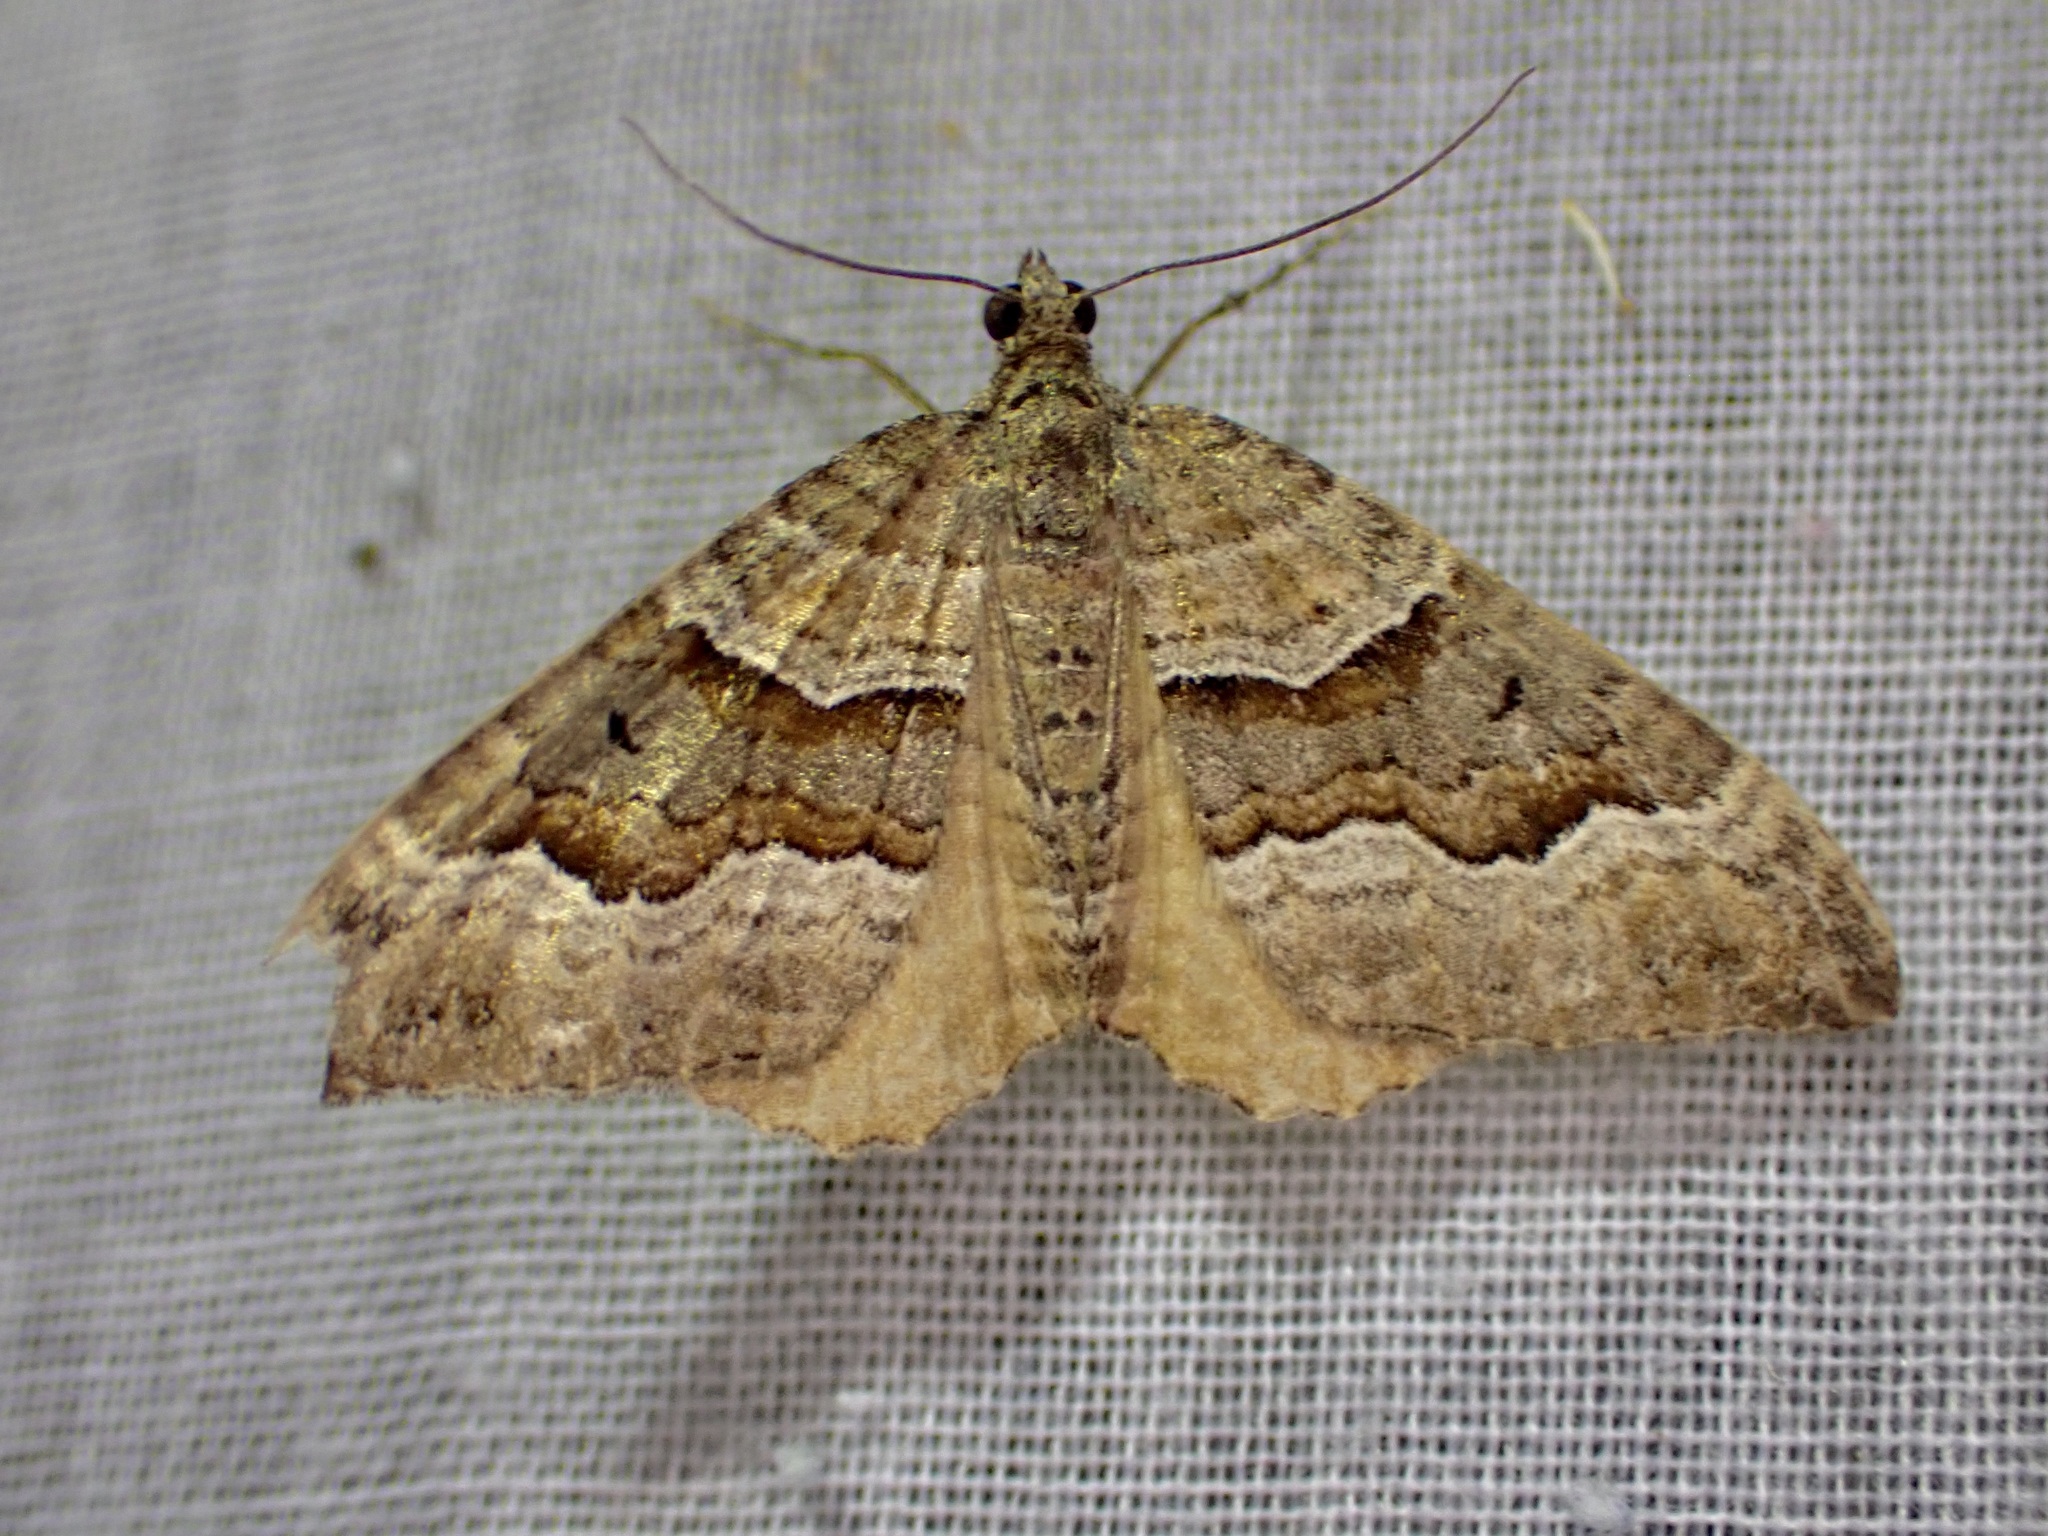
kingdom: Animalia
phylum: Arthropoda
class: Insecta
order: Lepidoptera
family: Geometridae
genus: Hydriomena
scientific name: Hydriomena deltoidata
